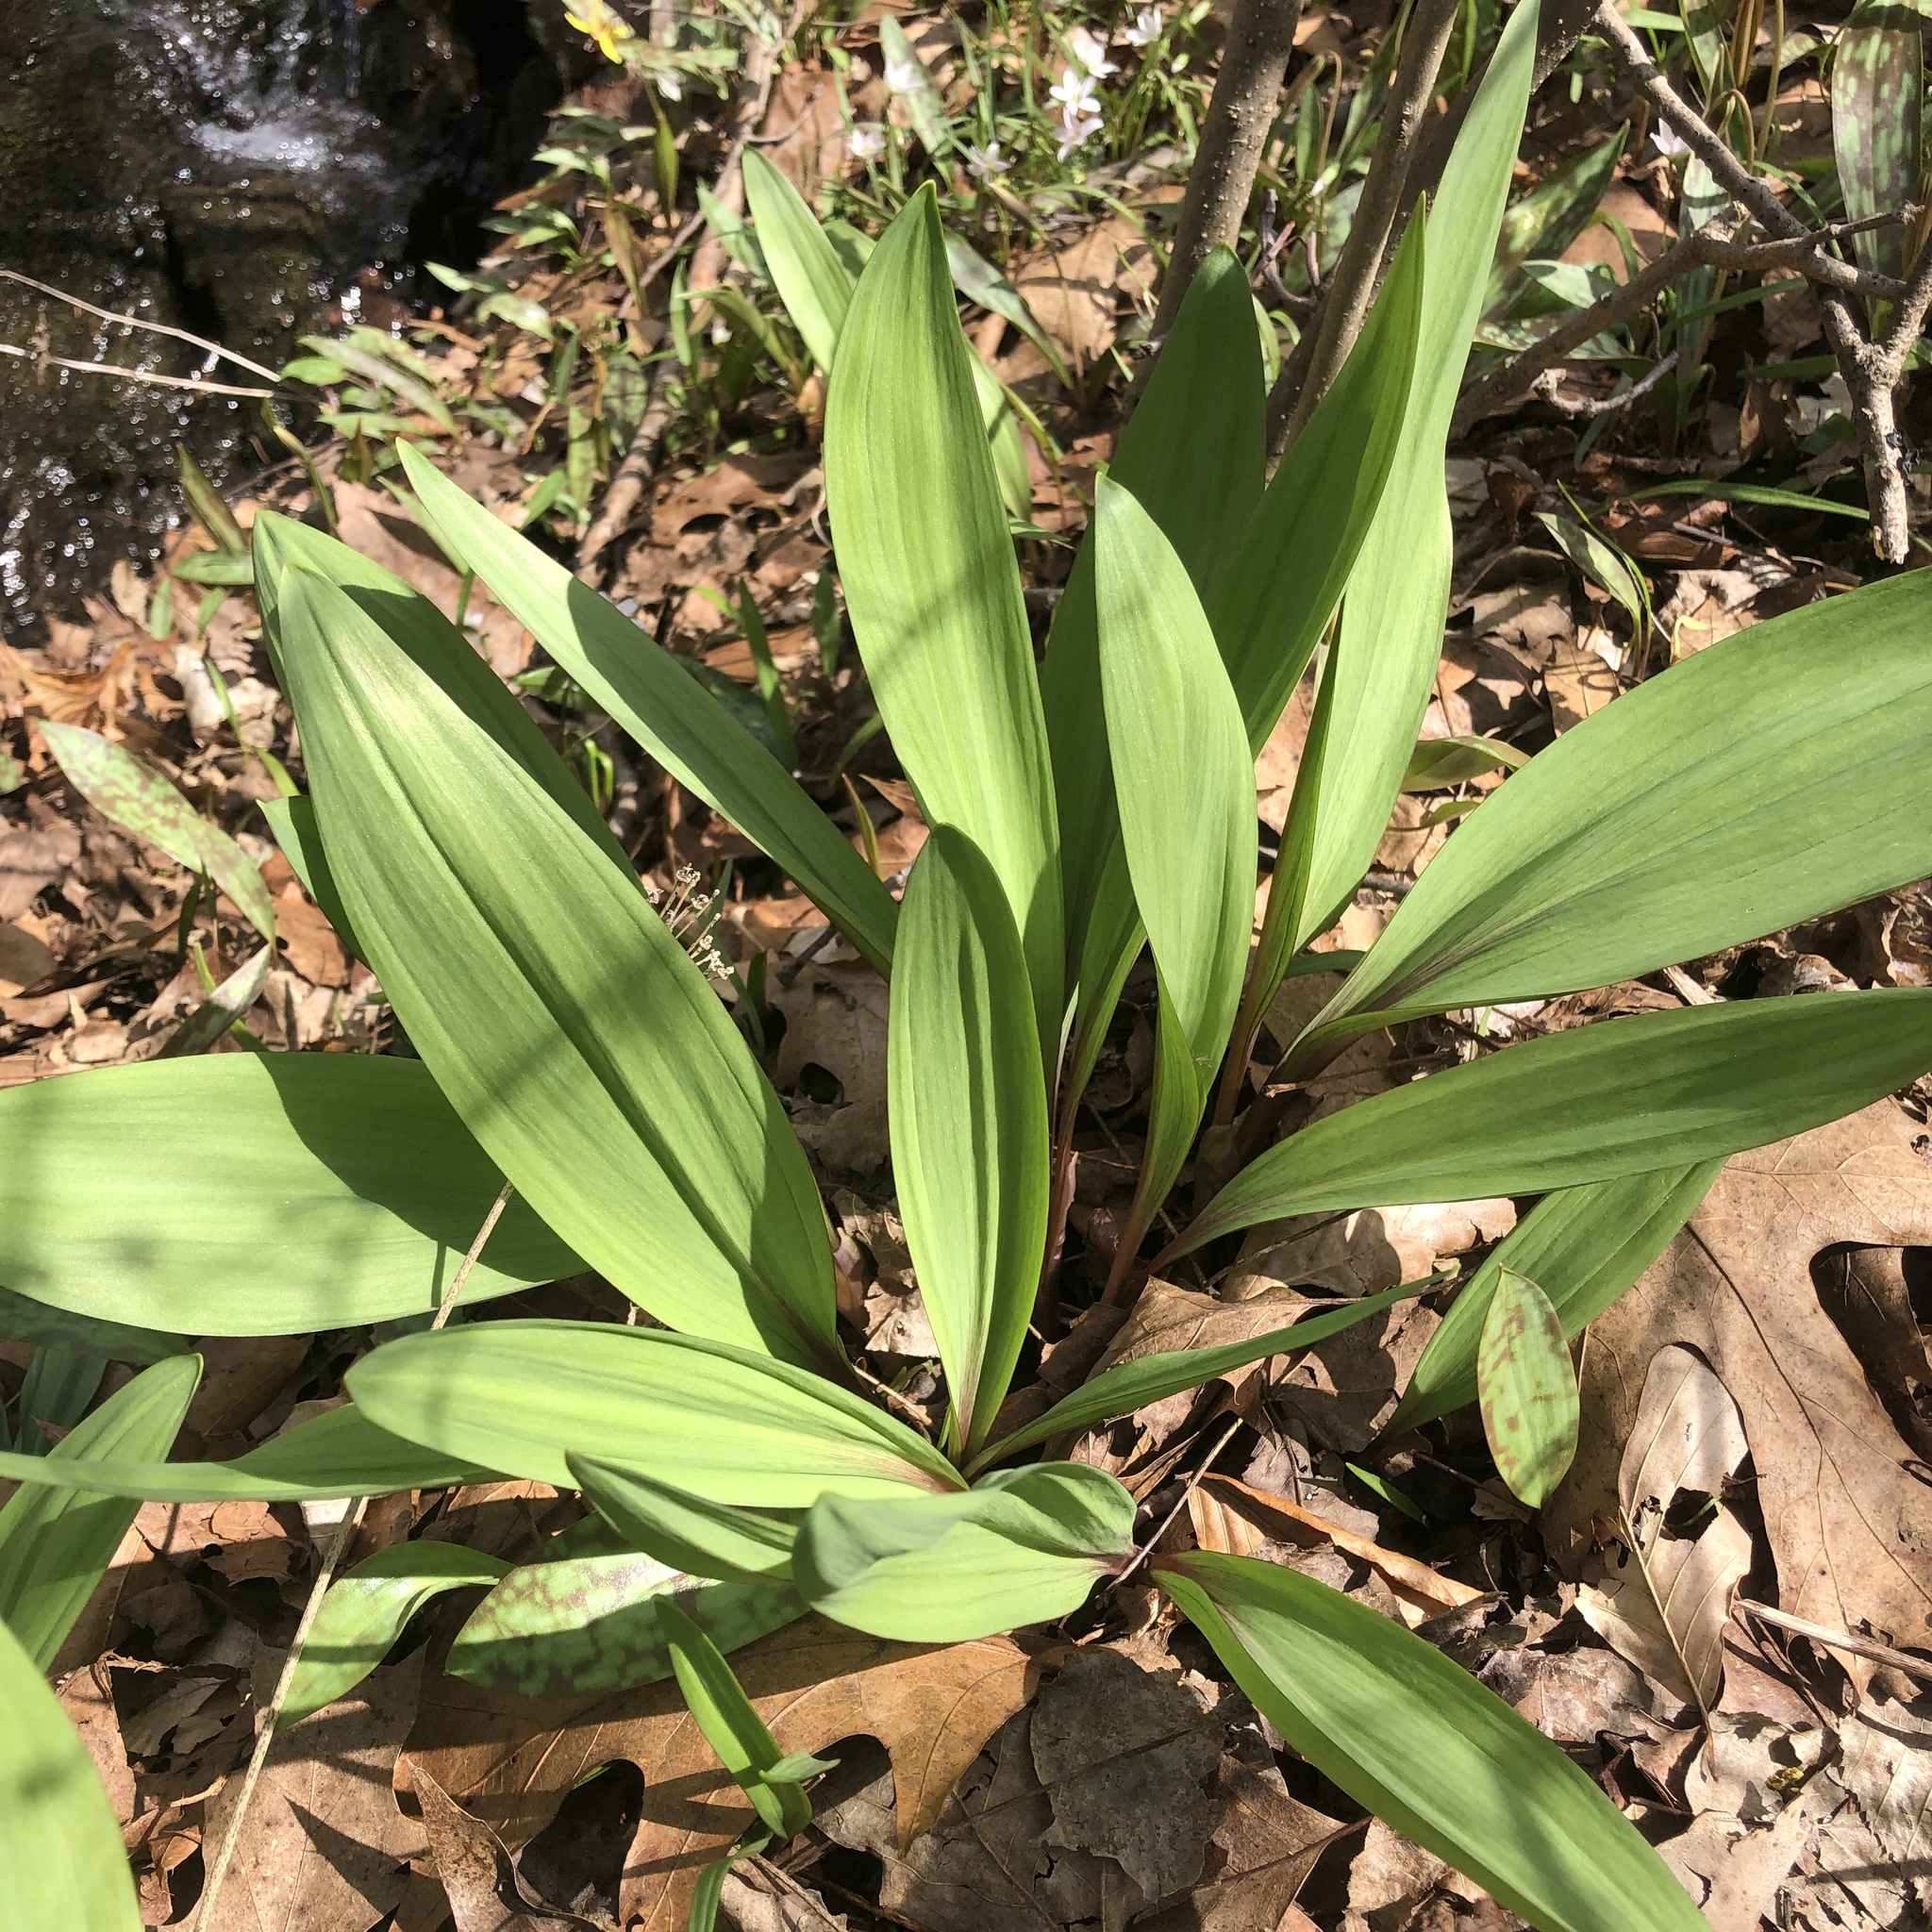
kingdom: Plantae
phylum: Tracheophyta
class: Liliopsida
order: Asparagales
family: Amaryllidaceae
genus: Allium
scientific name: Allium tricoccum
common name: Ramp
